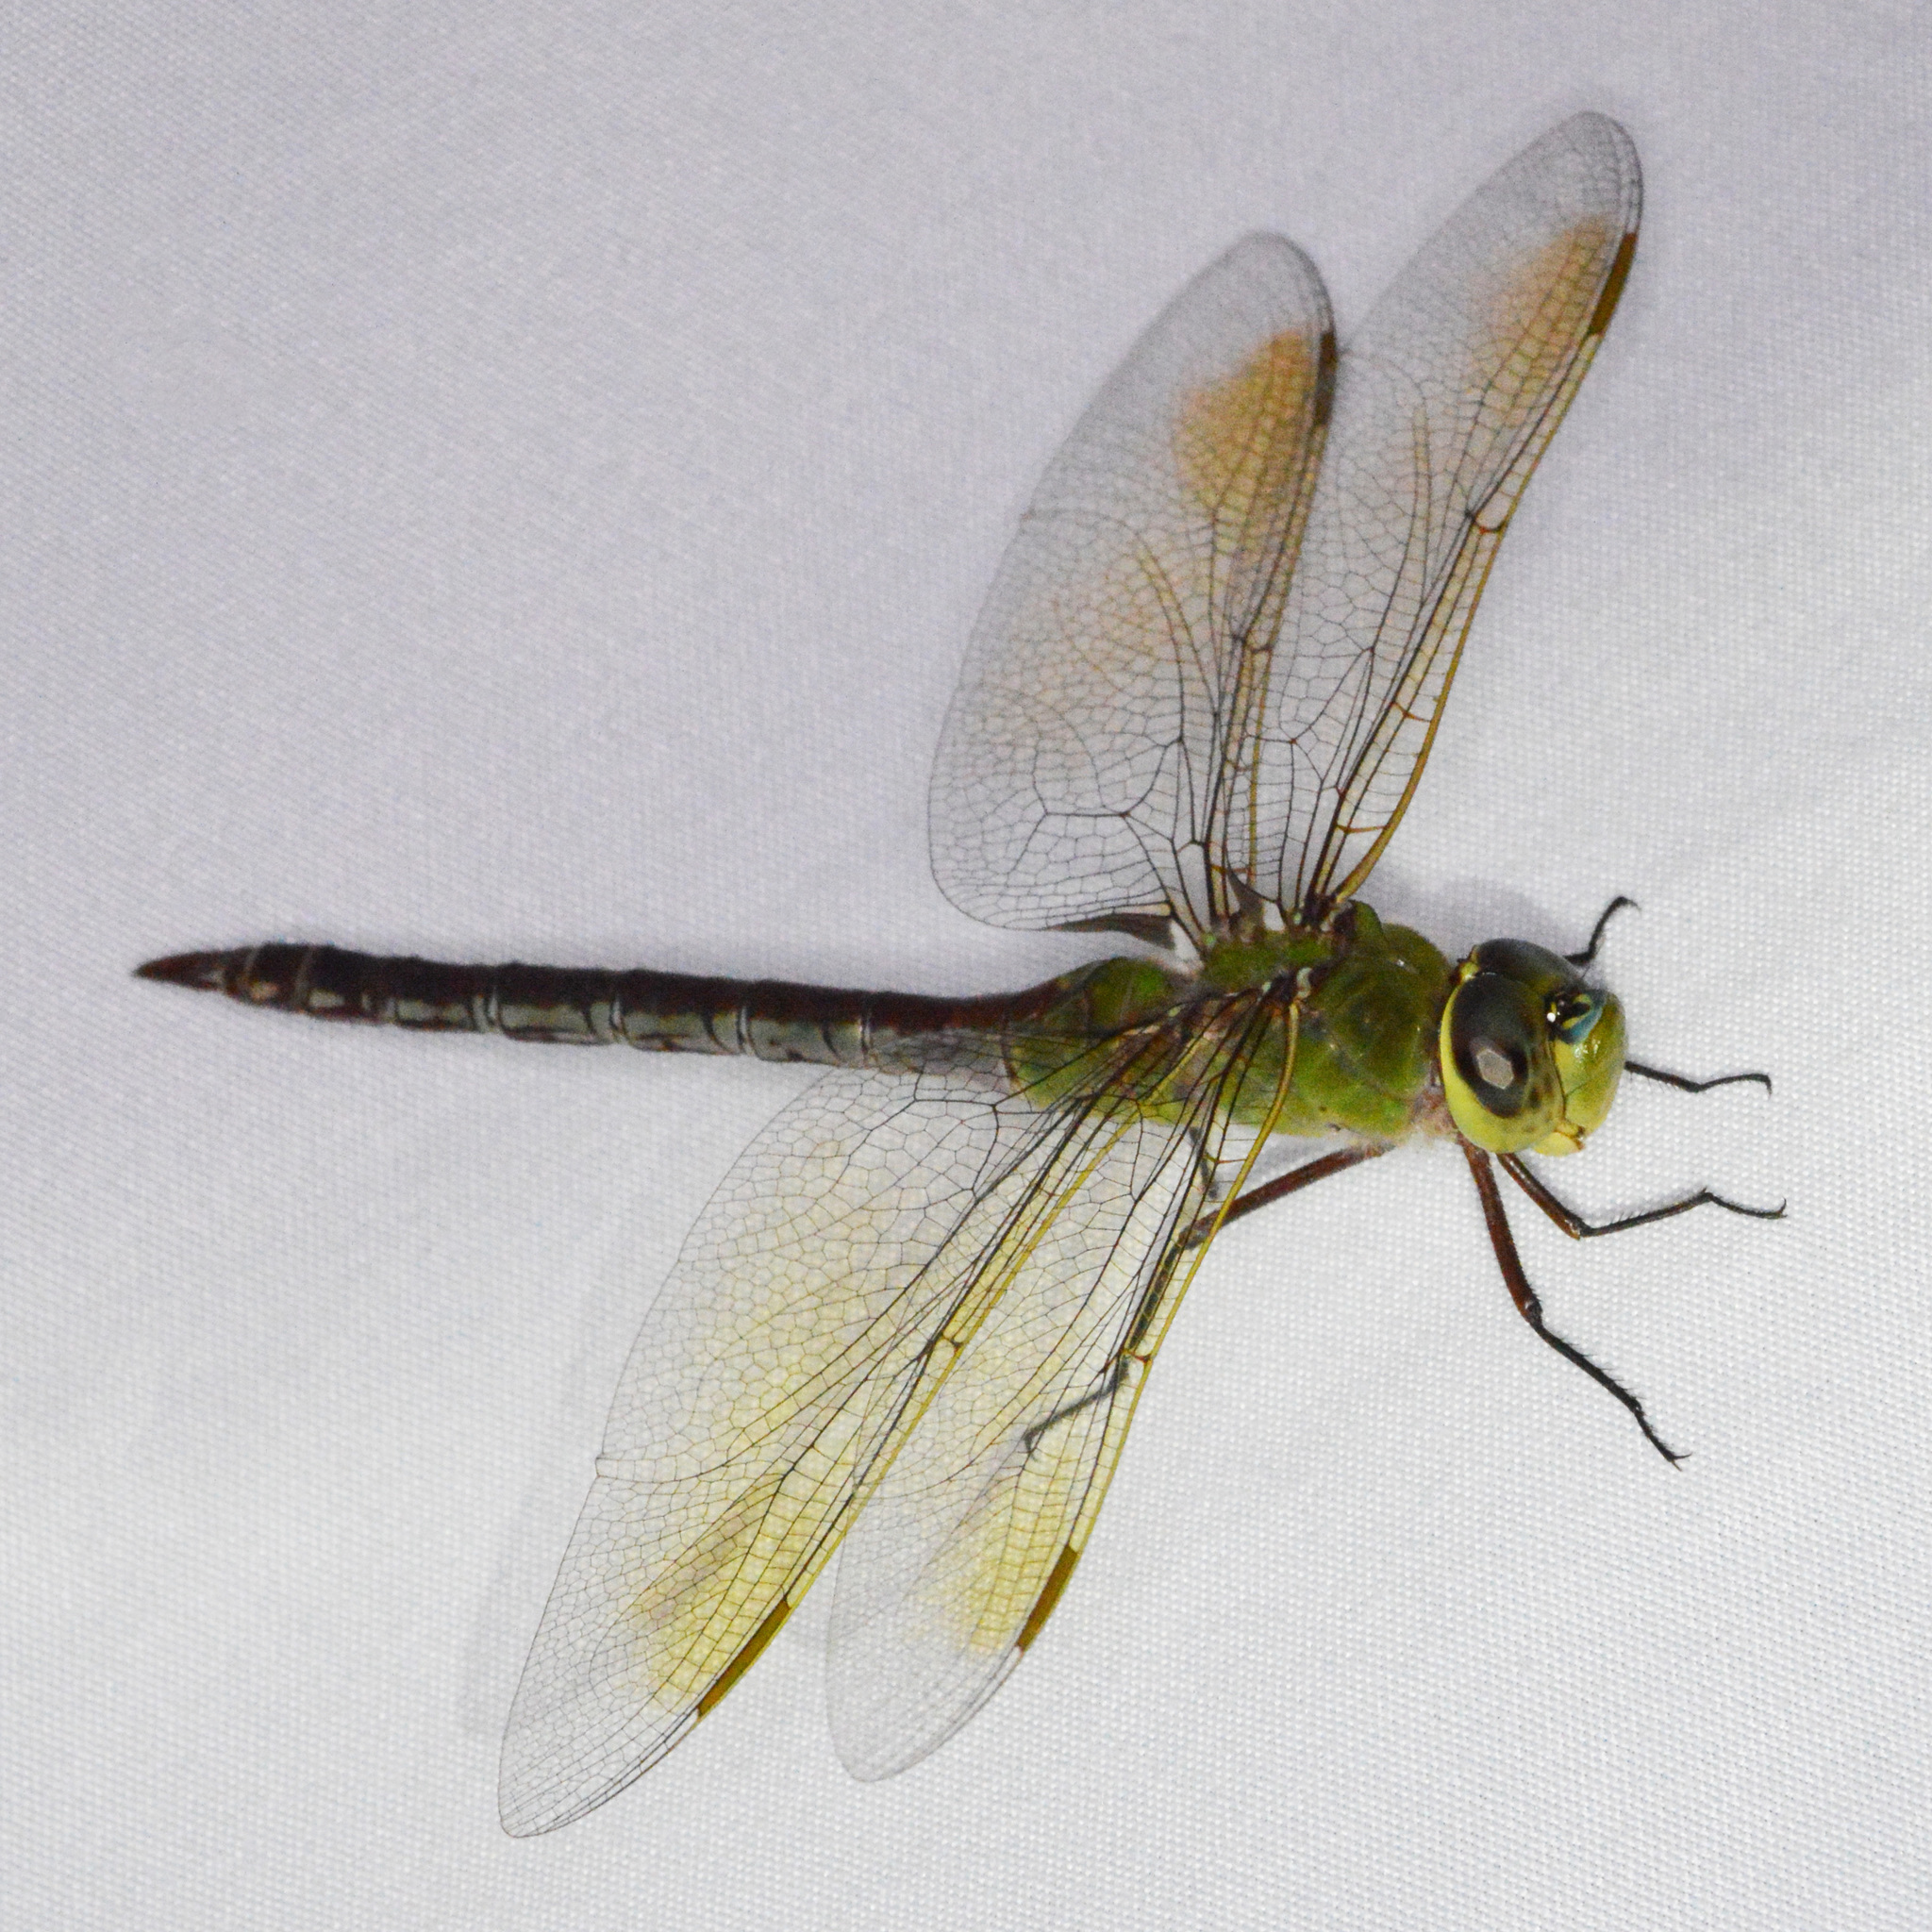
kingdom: Animalia
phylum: Arthropoda
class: Insecta
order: Odonata
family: Aeshnidae
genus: Anax
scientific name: Anax junius
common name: Common green darner
